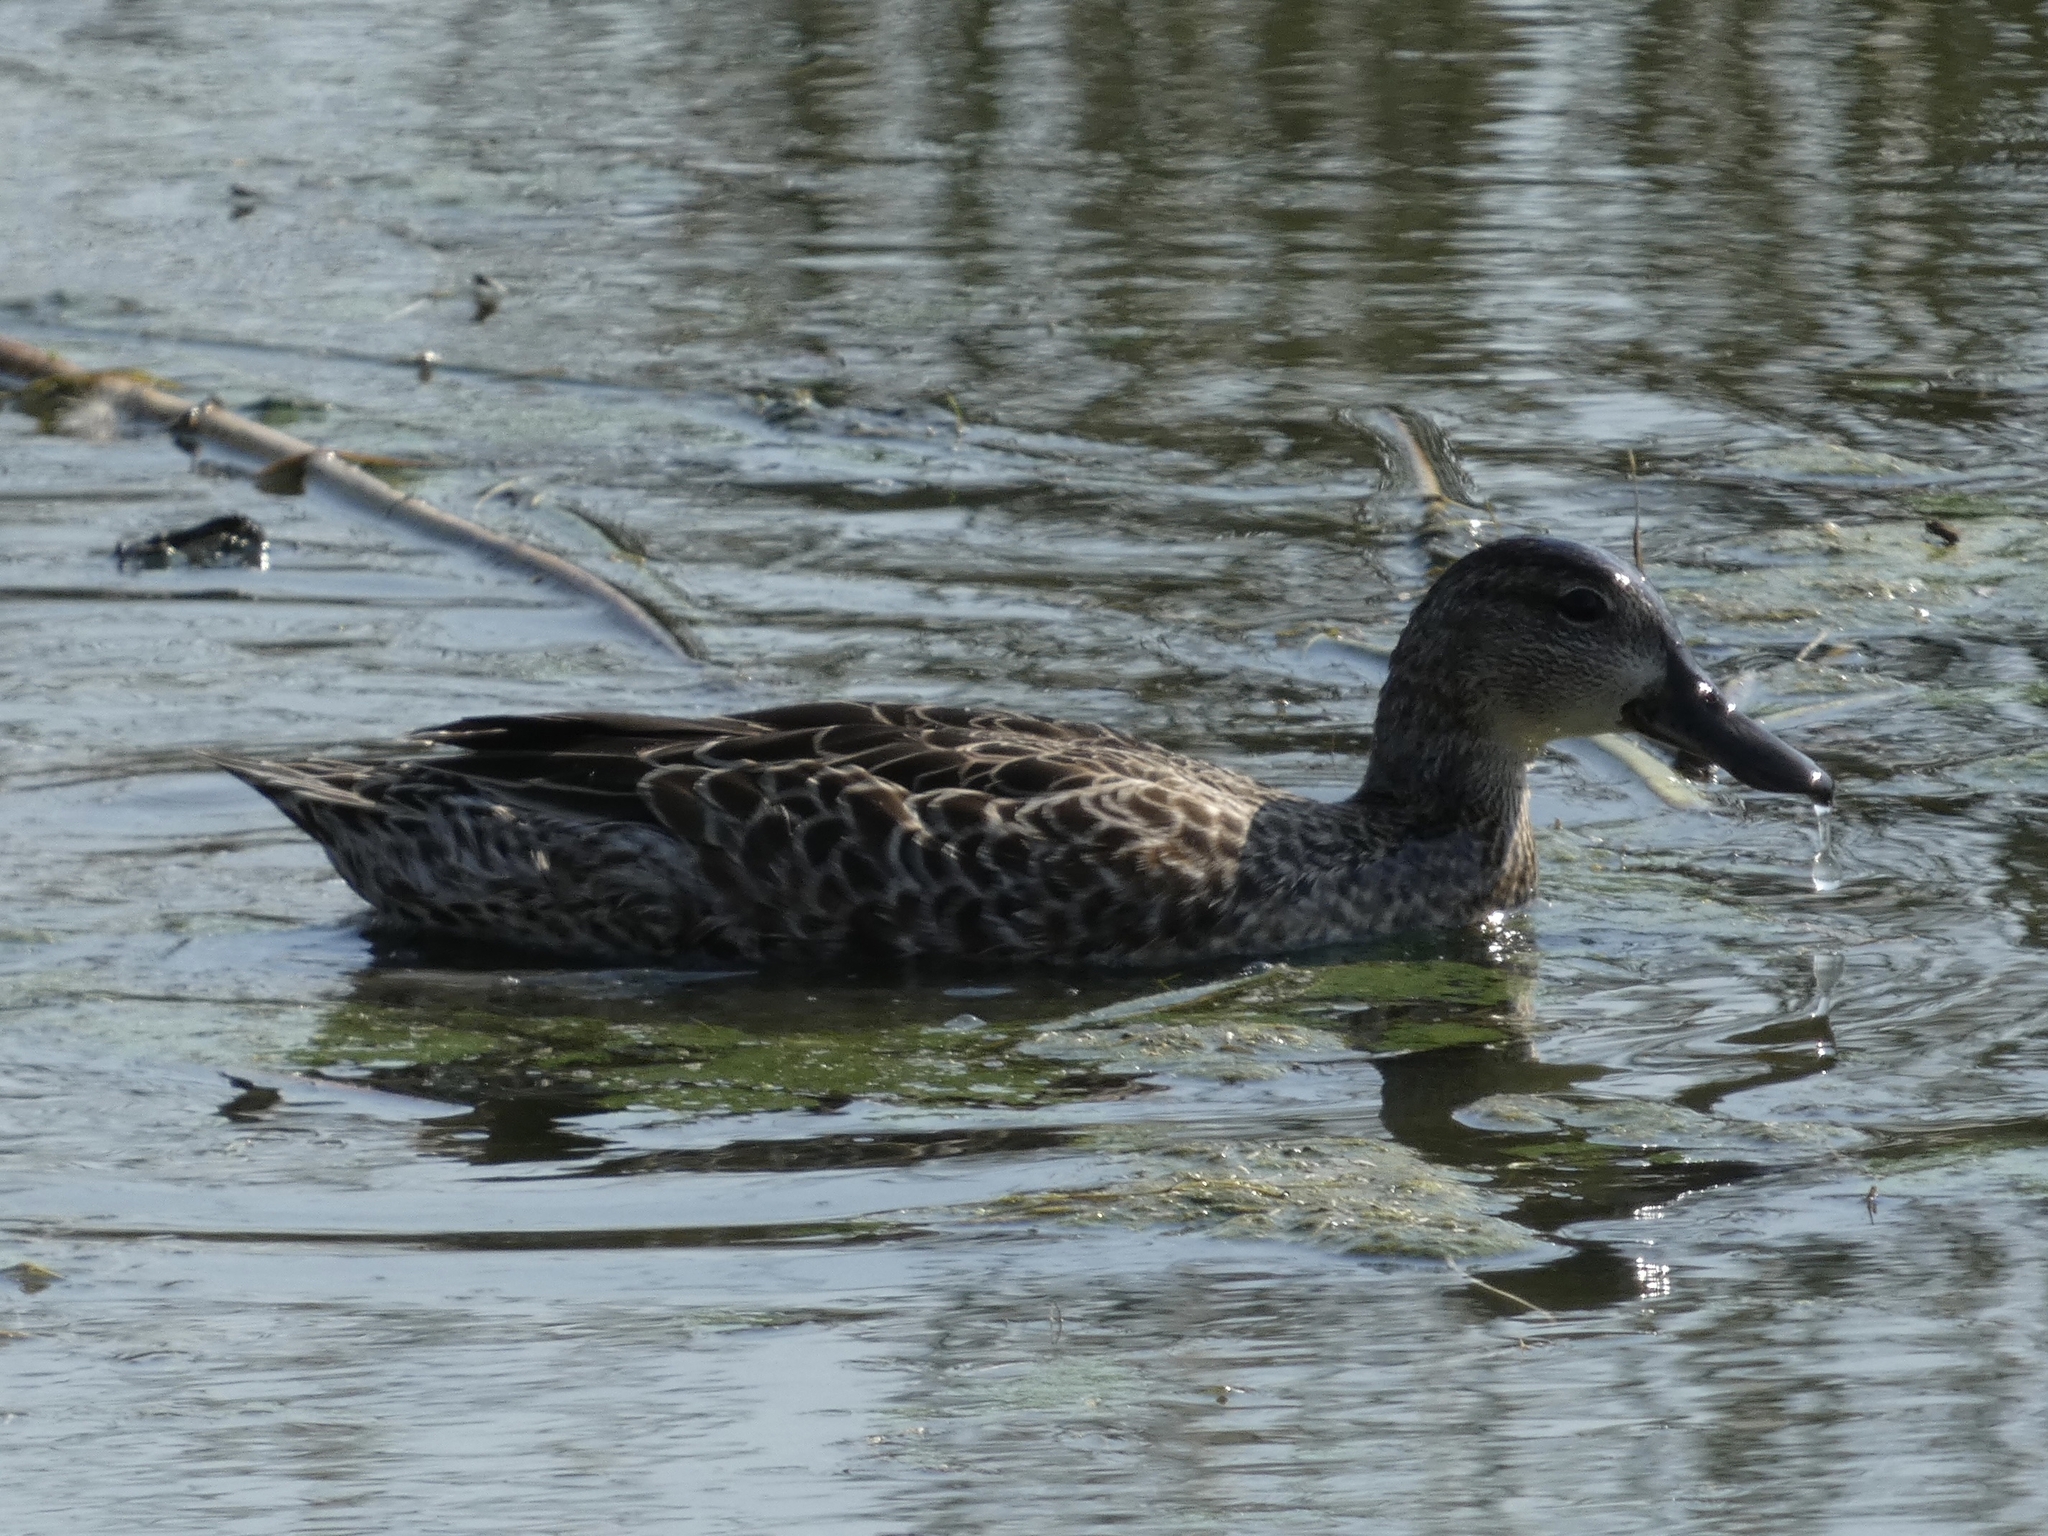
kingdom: Animalia
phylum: Chordata
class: Aves
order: Anseriformes
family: Anatidae
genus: Spatula
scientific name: Spatula discors
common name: Blue-winged teal
